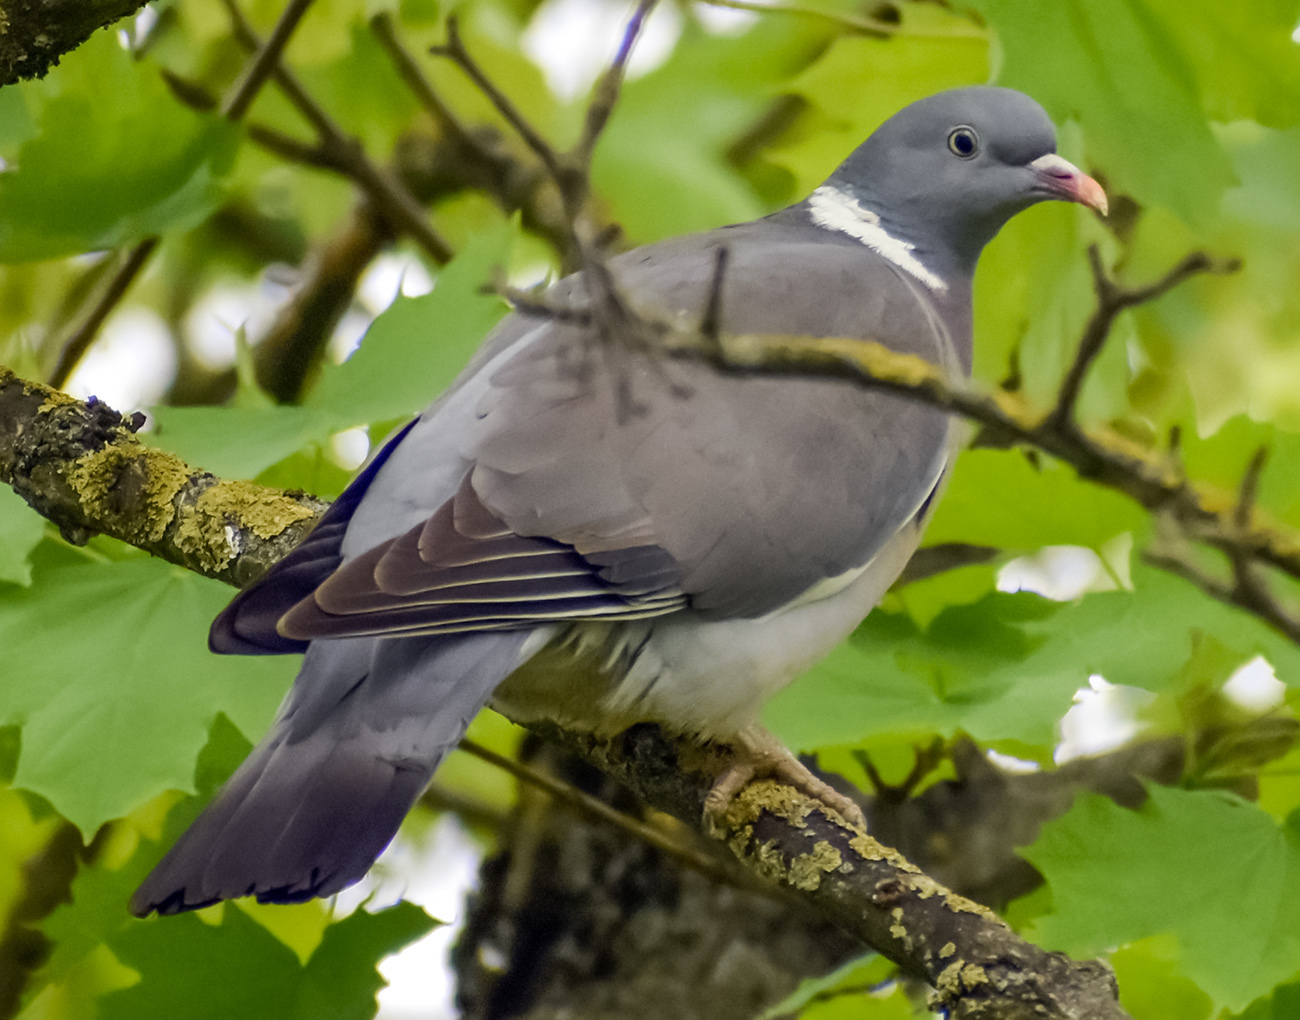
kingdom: Animalia
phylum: Chordata
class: Aves
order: Columbiformes
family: Columbidae
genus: Columba
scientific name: Columba palumbus
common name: Common wood pigeon
